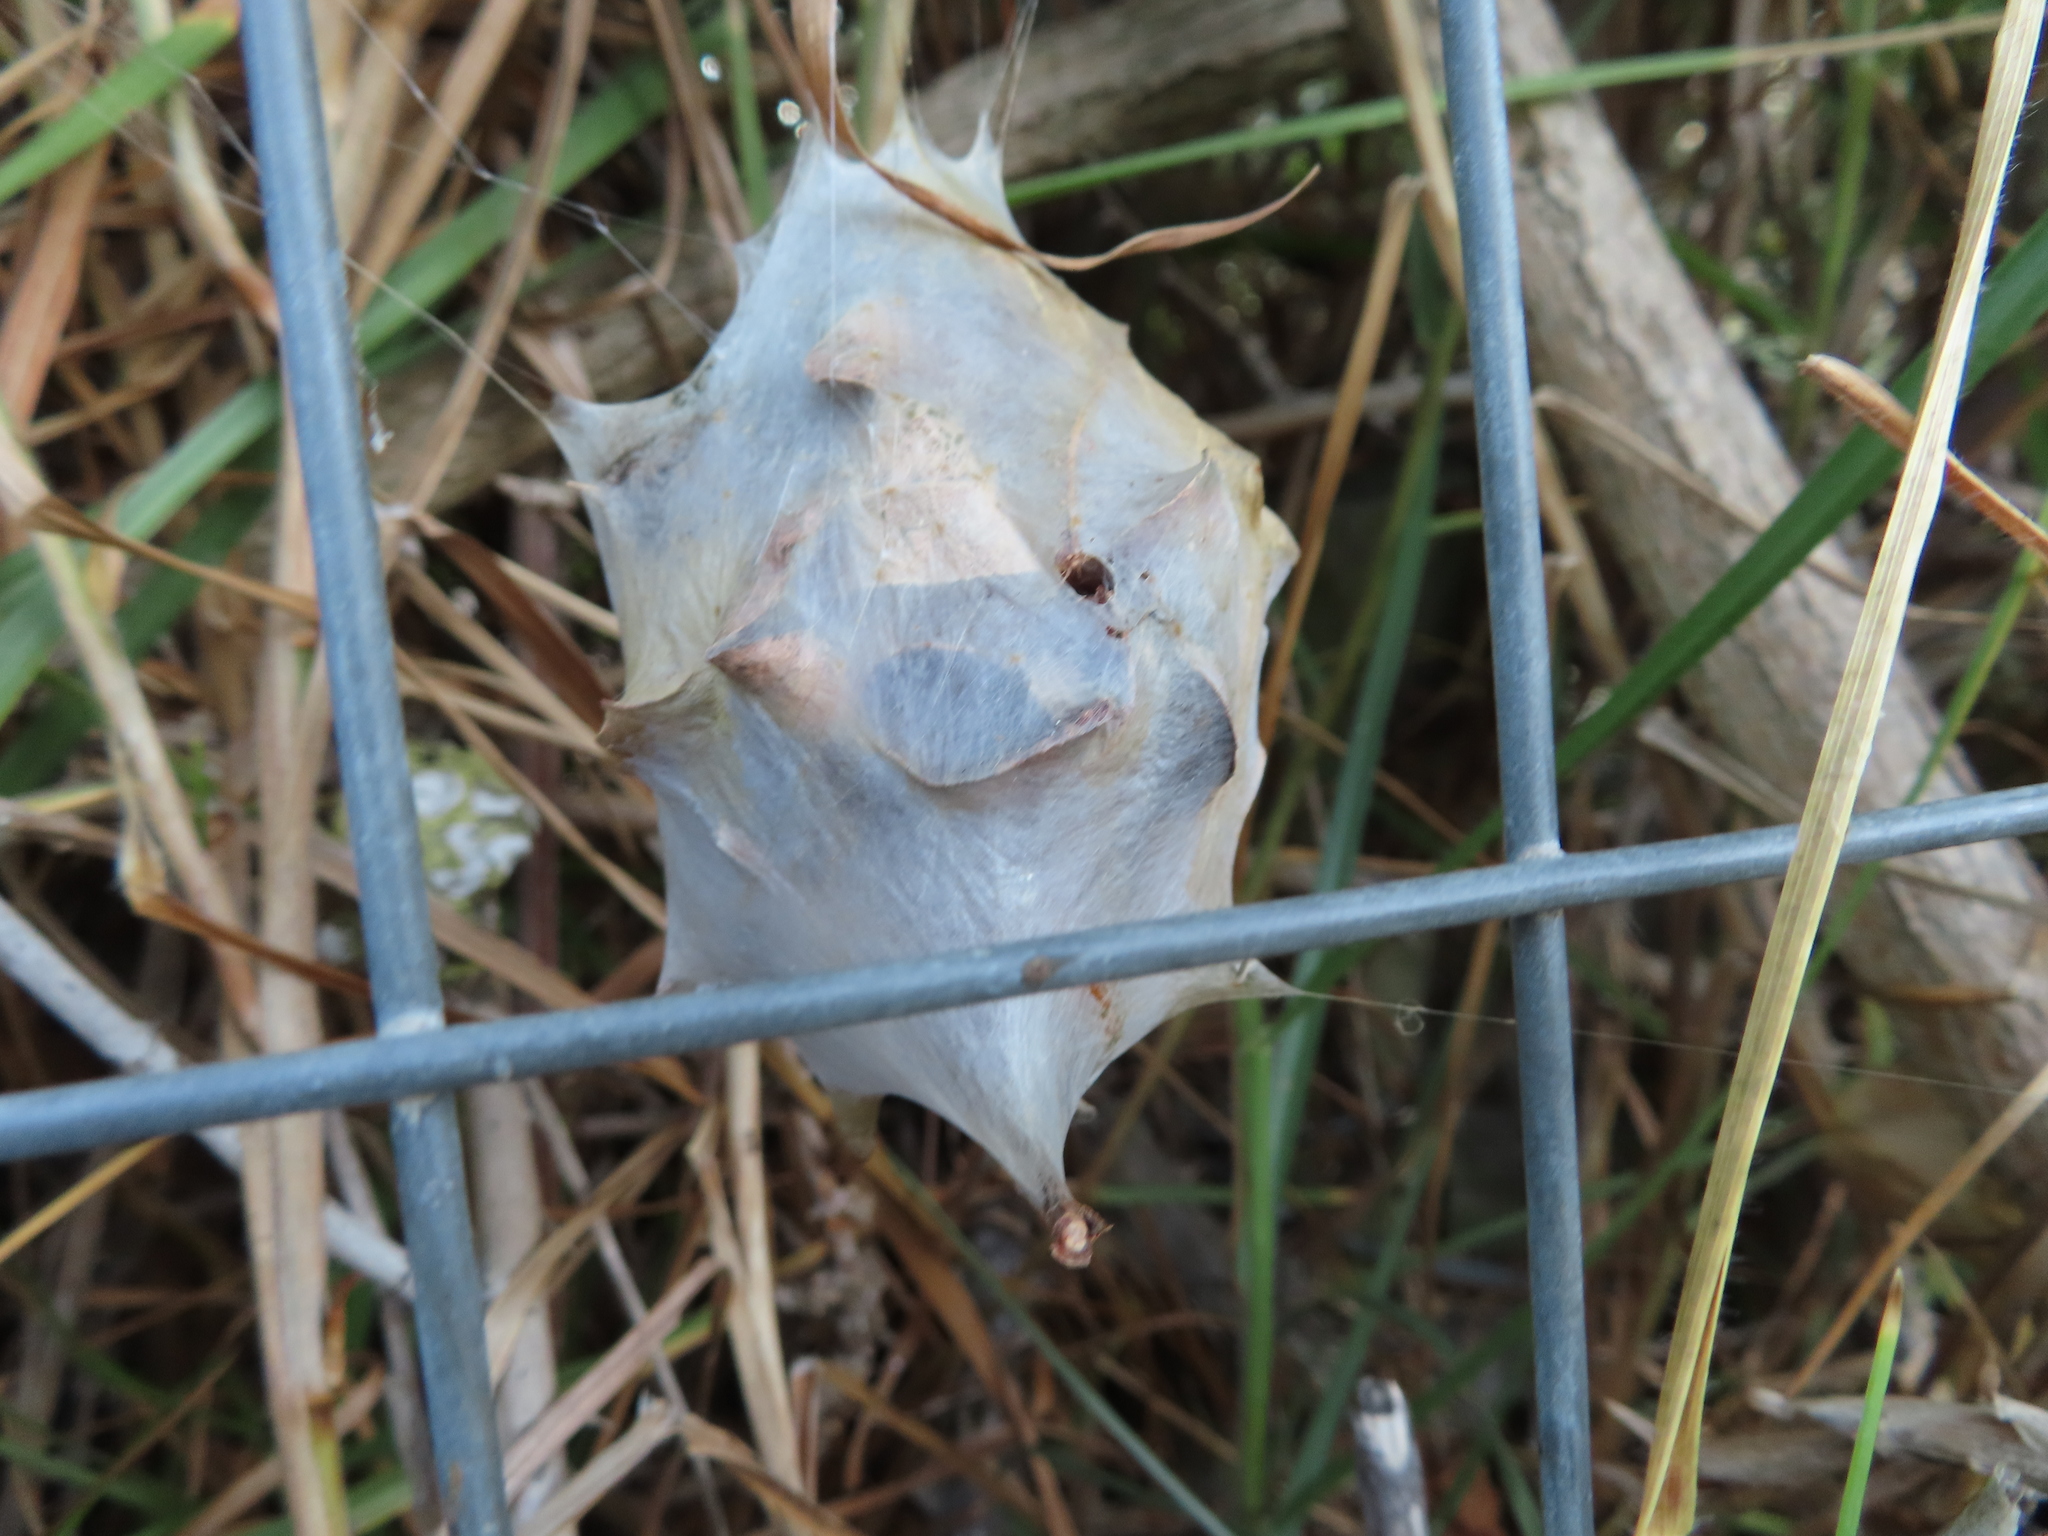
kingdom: Animalia
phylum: Arthropoda
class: Arachnida
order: Araneae
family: Sparassidae
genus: Palystes
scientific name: Palystes superciliosus
